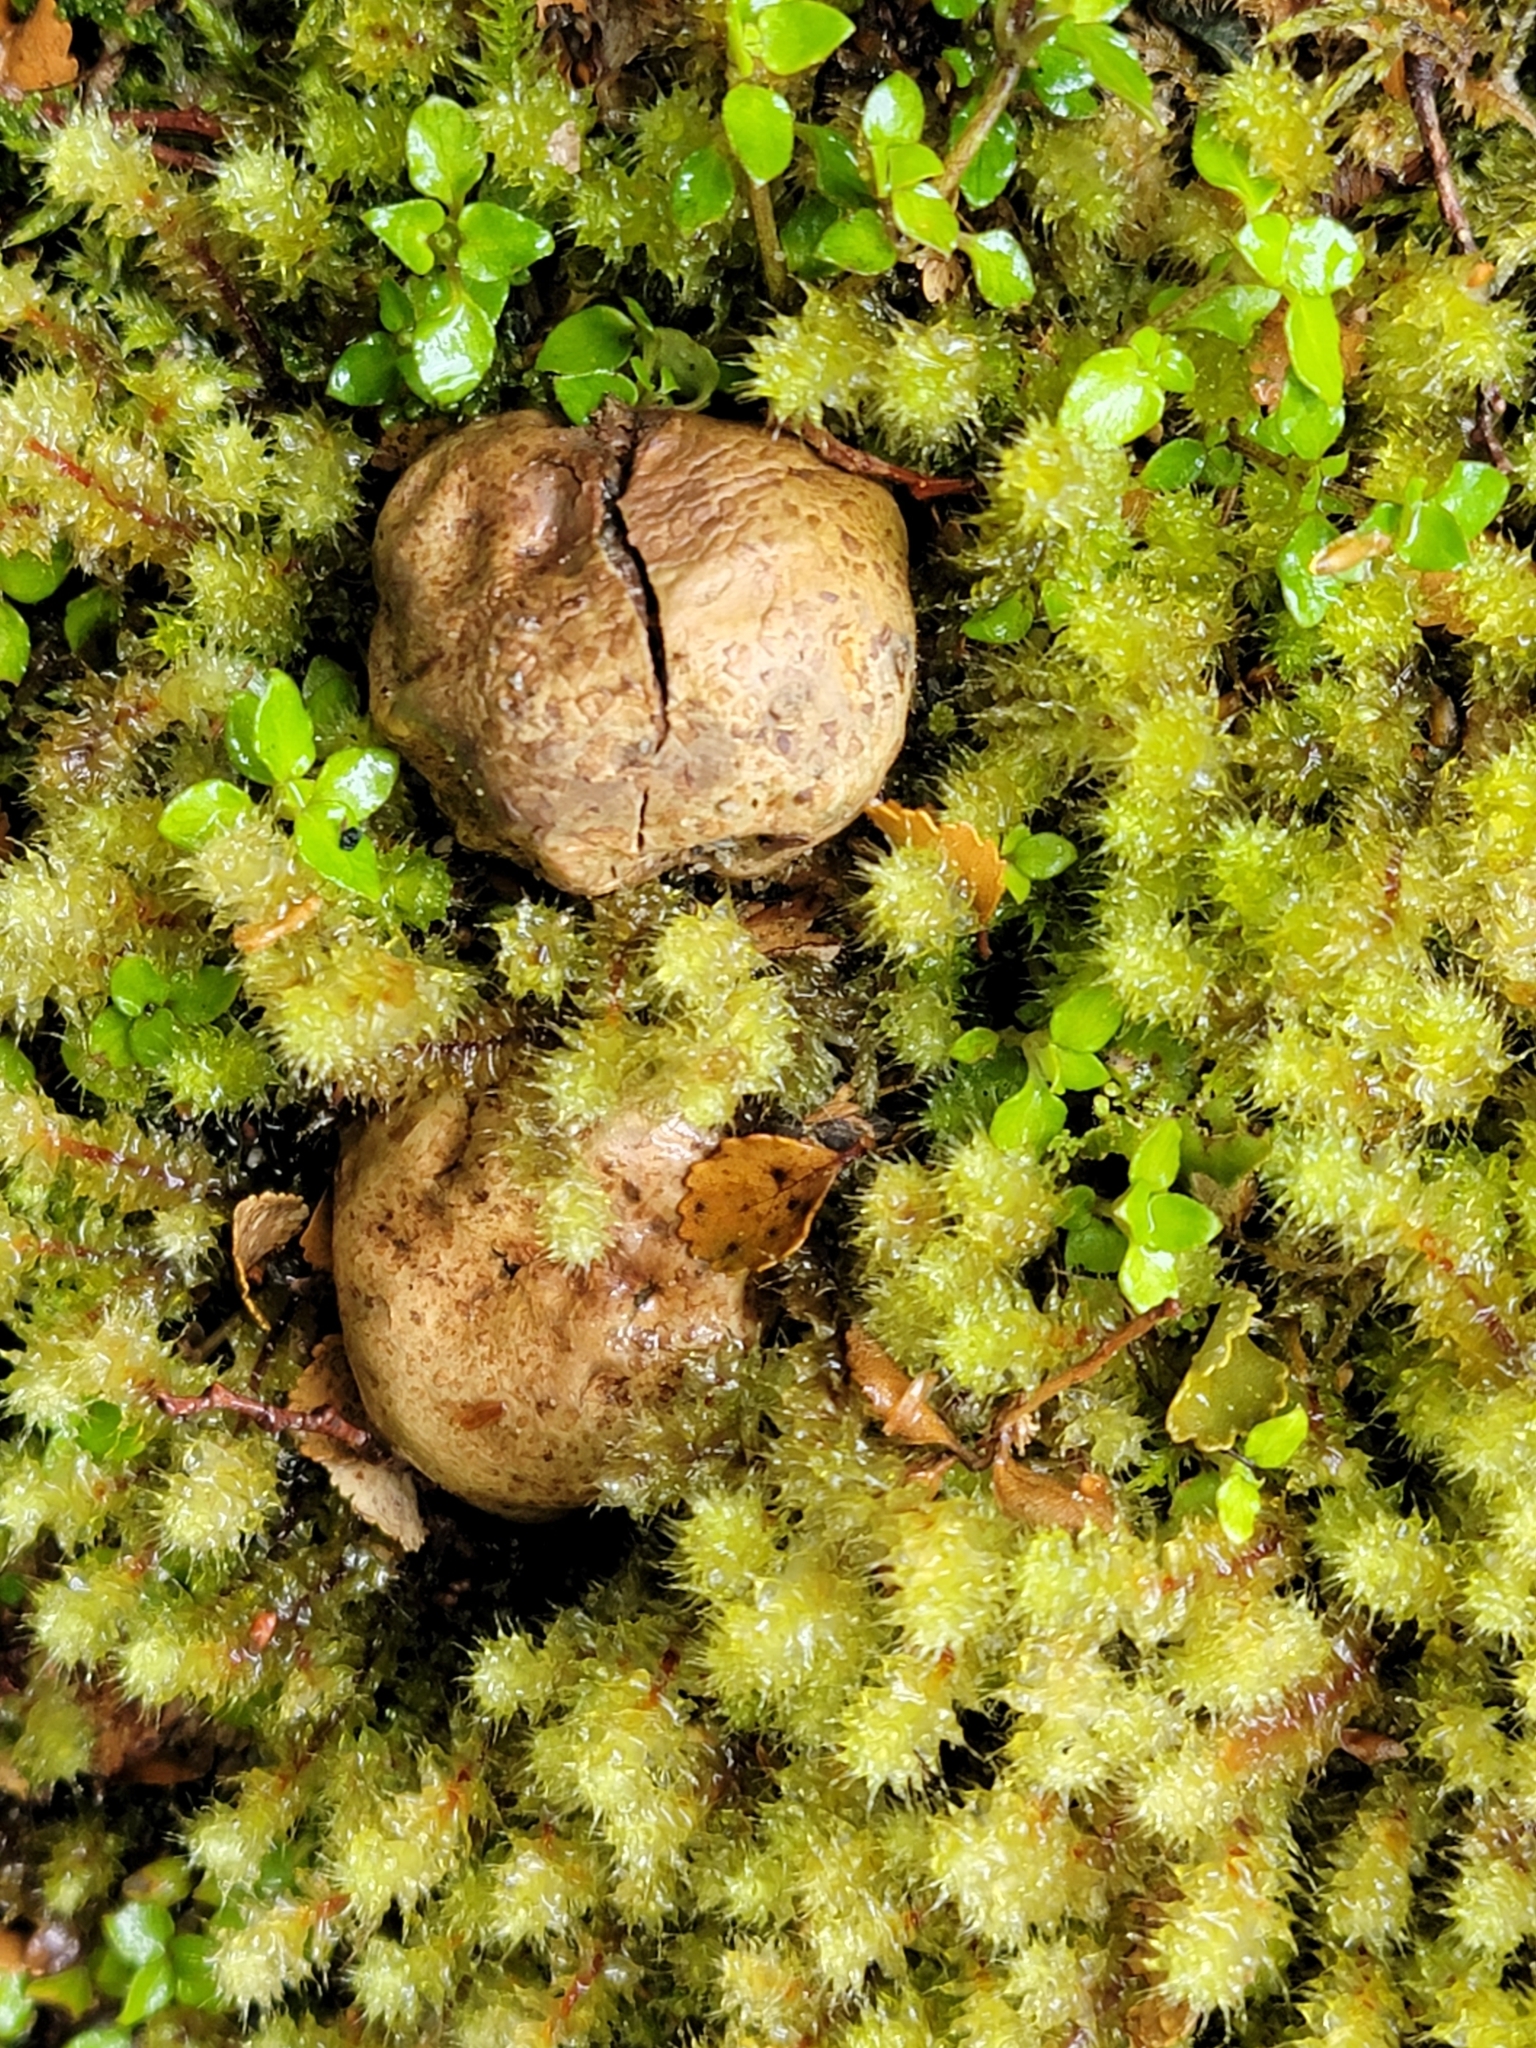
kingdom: Fungi
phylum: Basidiomycota
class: Agaricomycetes
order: Boletales
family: Boletaceae
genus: Octaviania
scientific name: Octaviania tasmanica
